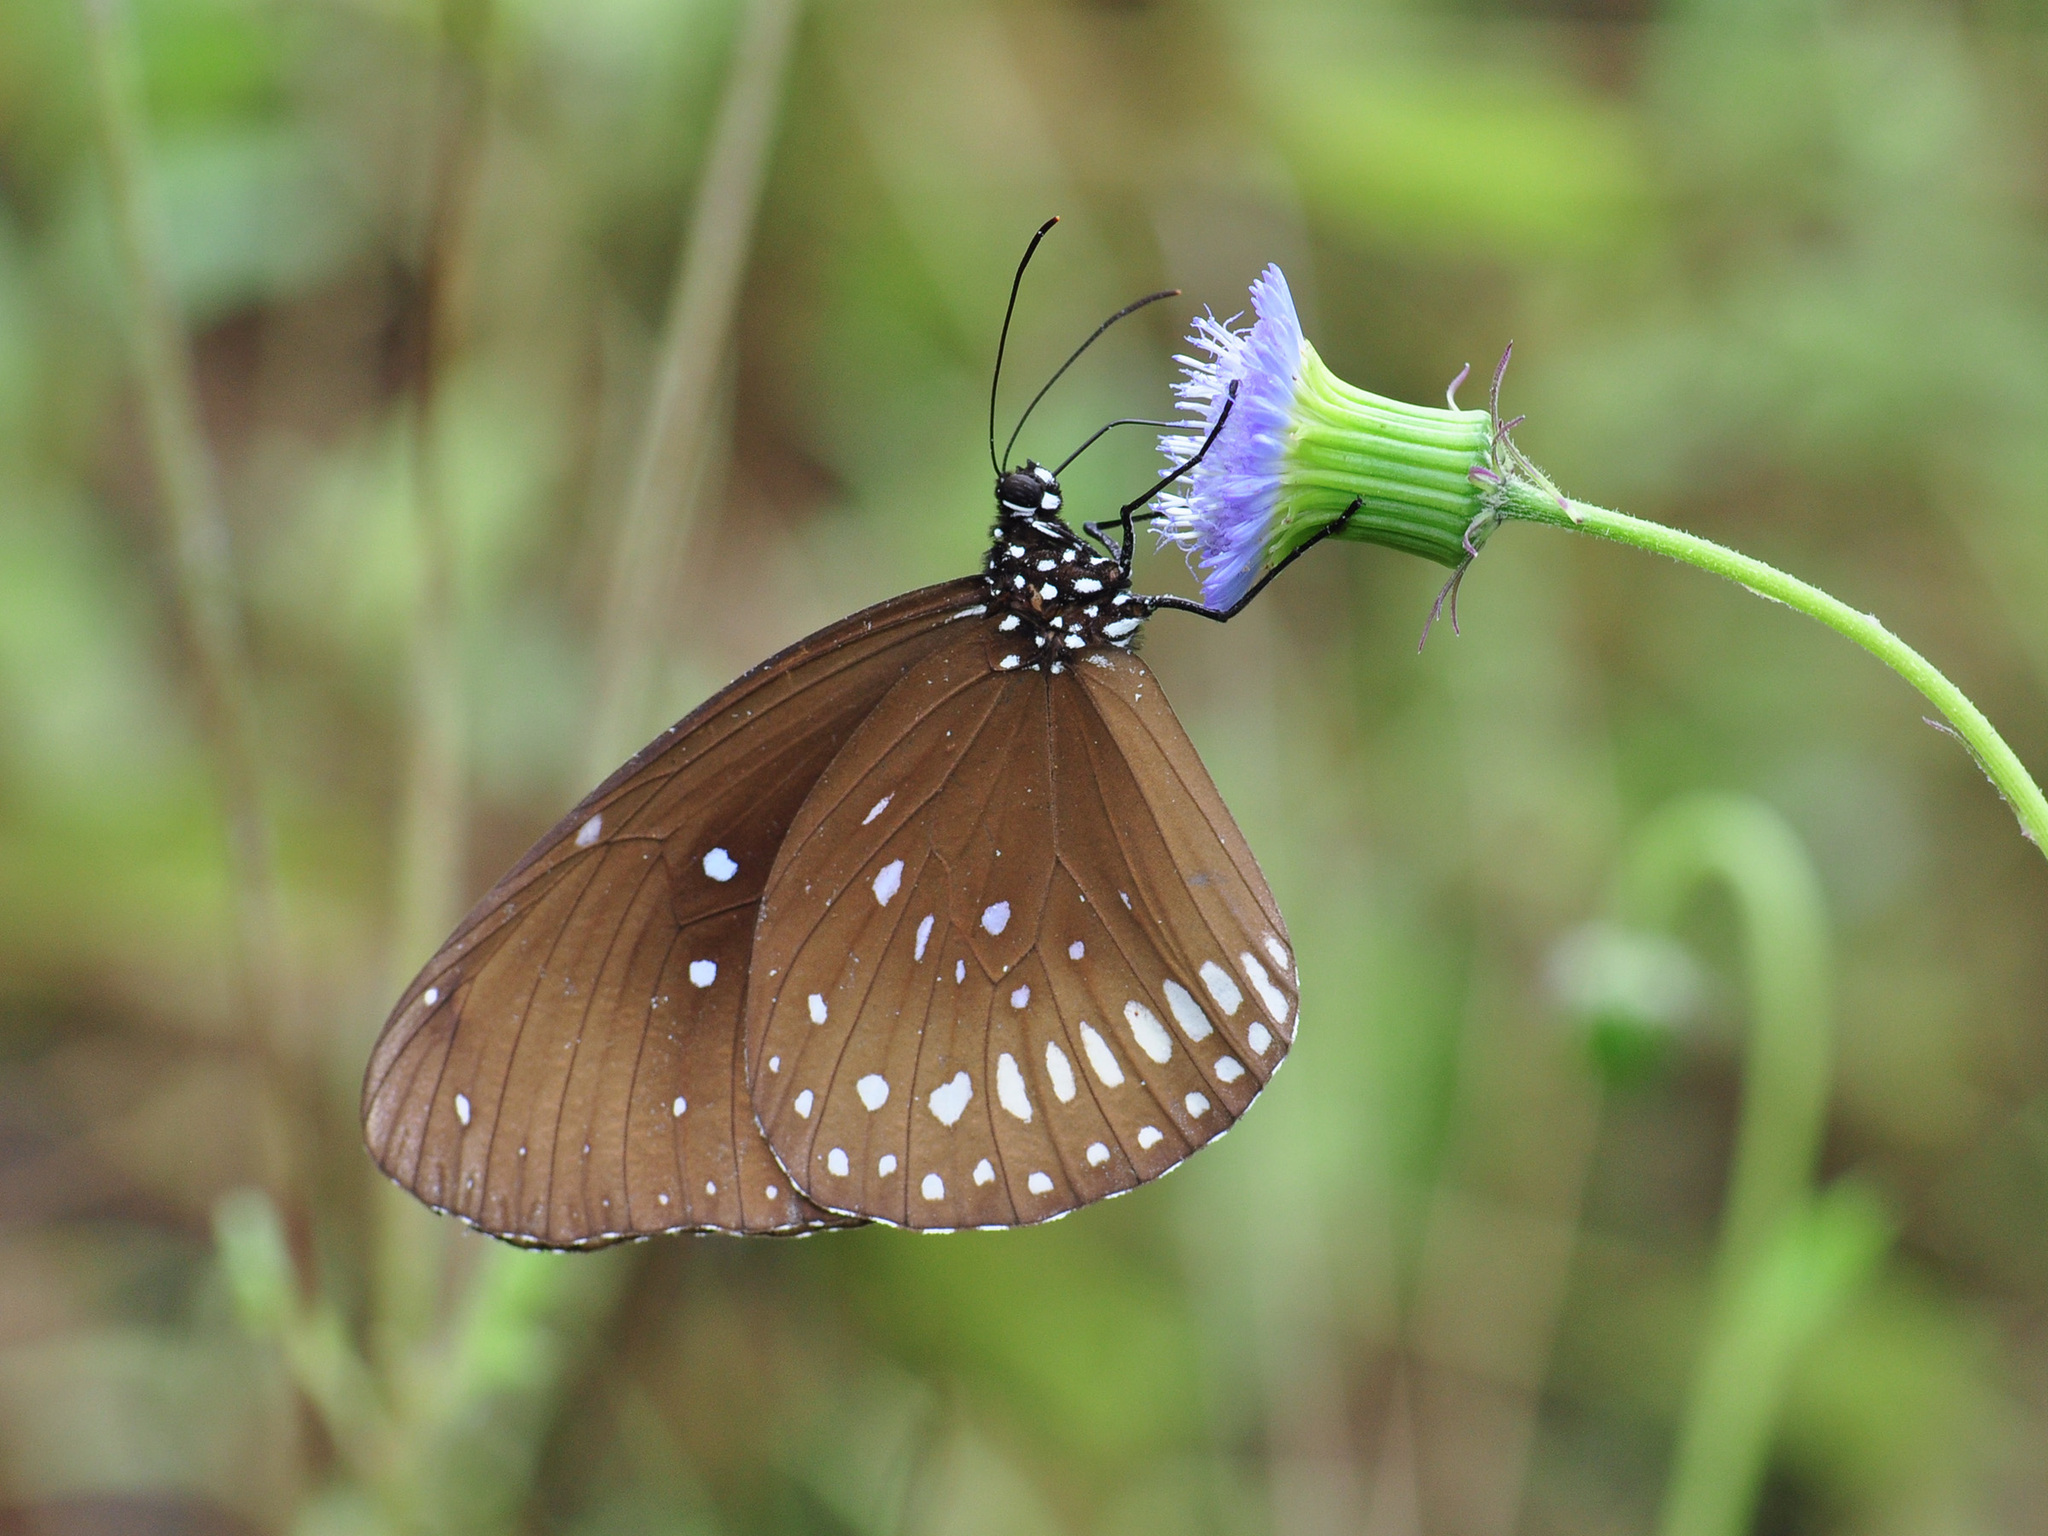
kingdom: Animalia
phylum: Arthropoda
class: Insecta
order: Lepidoptera
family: Nymphalidae
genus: Euploea
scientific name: Euploea core
